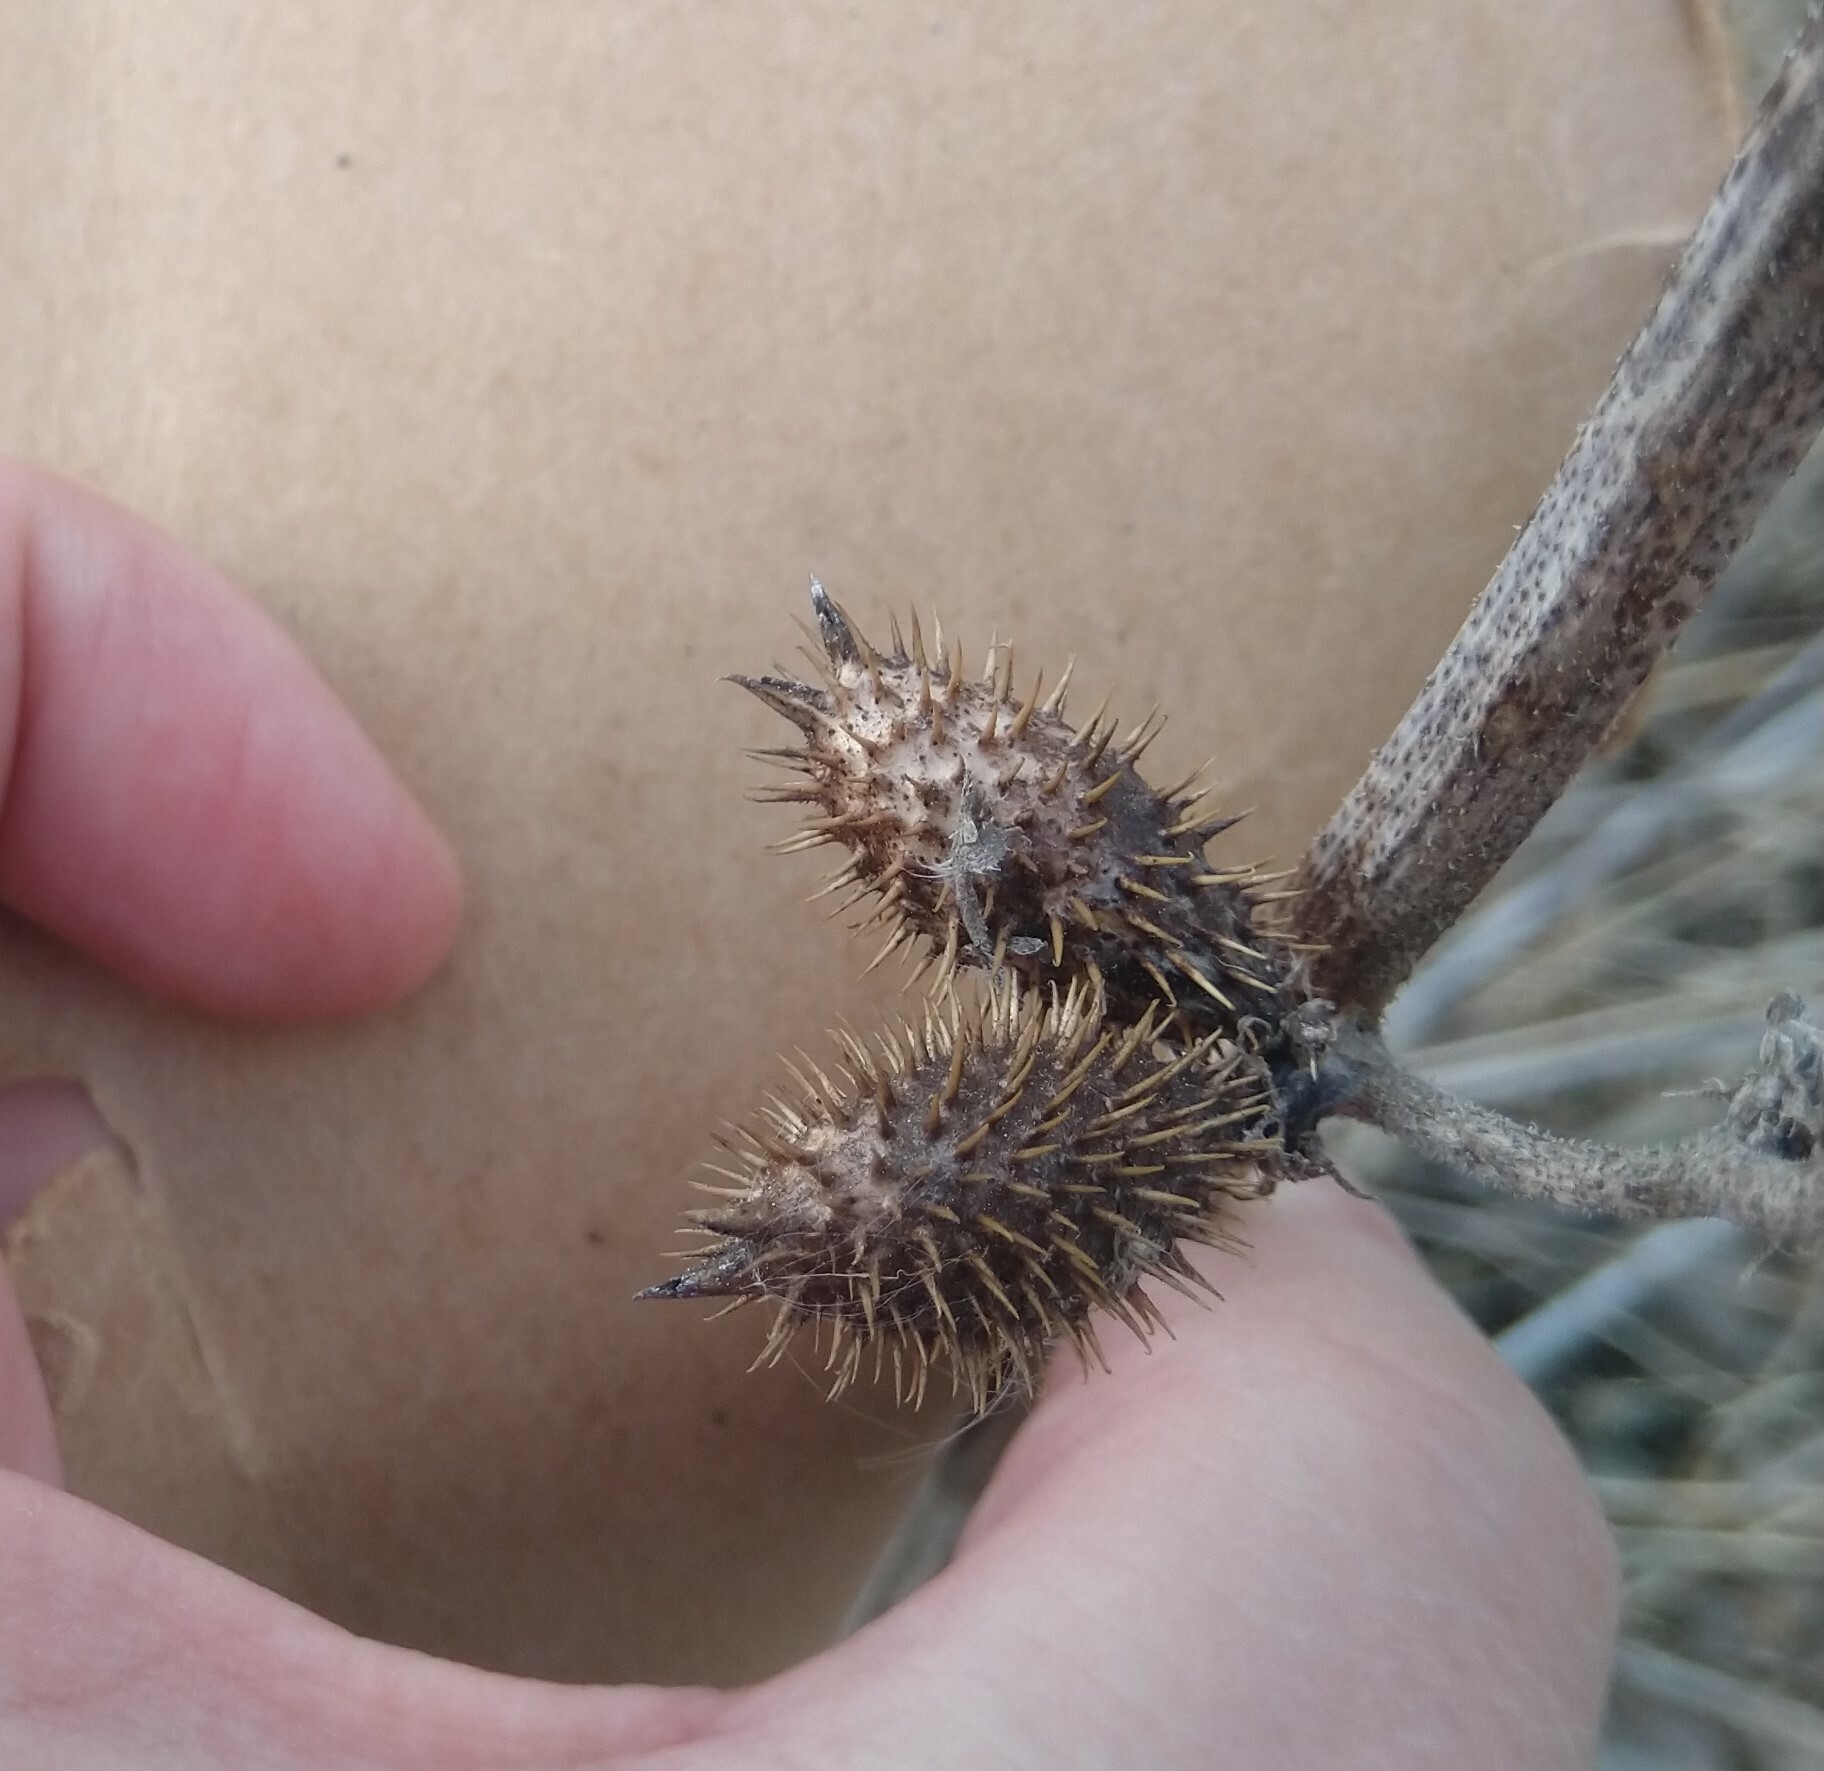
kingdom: Plantae
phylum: Tracheophyta
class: Magnoliopsida
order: Asterales
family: Asteraceae
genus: Xanthium
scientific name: Xanthium strumarium
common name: Rough cocklebur
